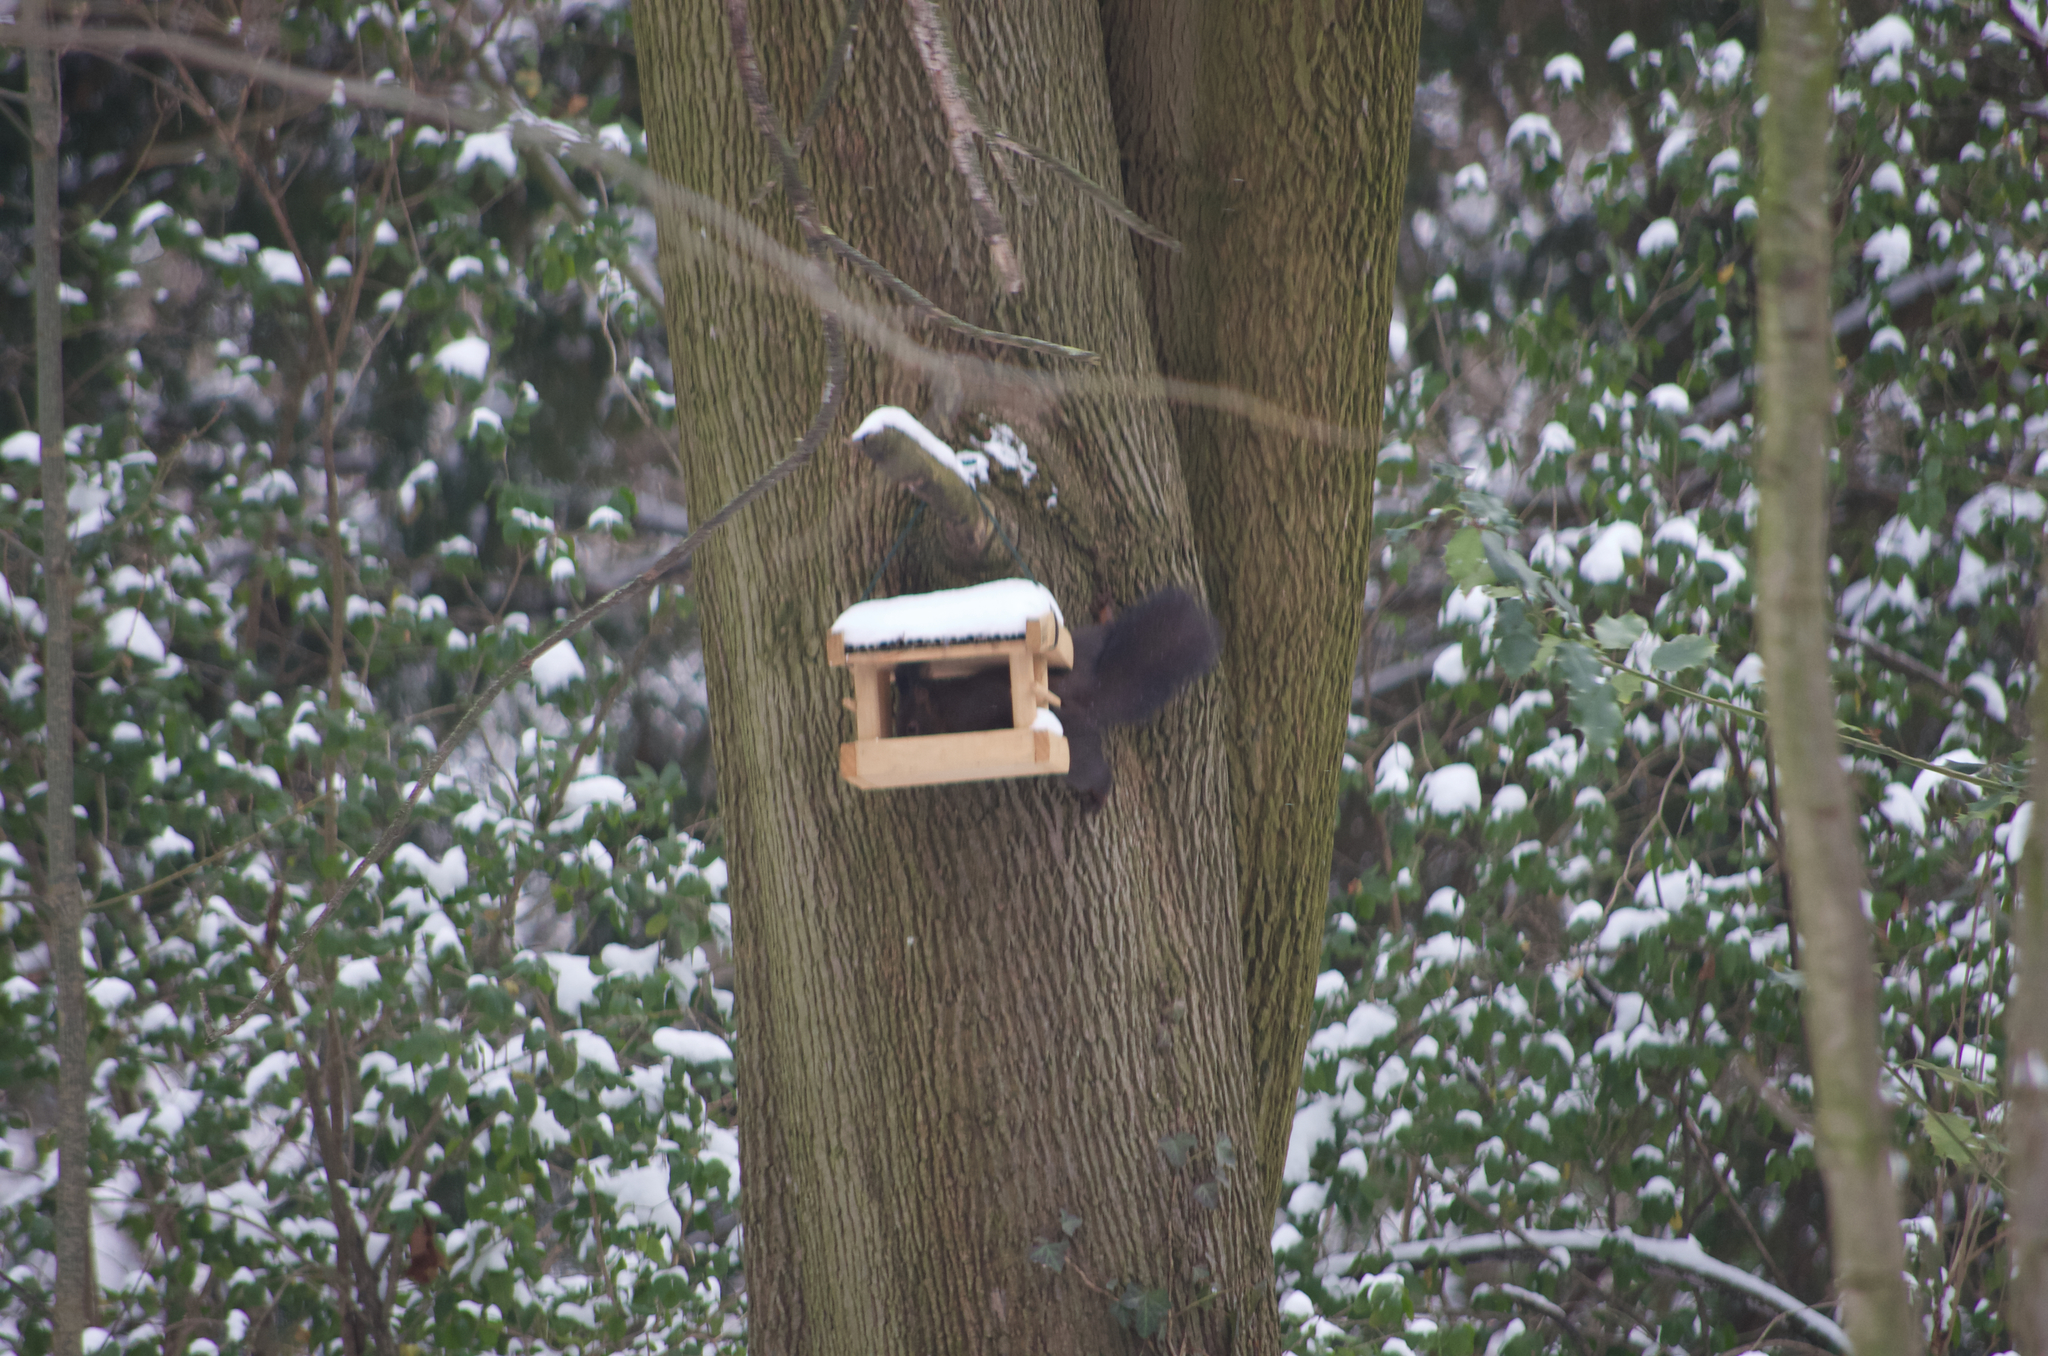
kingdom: Animalia
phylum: Chordata
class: Mammalia
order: Rodentia
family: Sciuridae
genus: Sciurus
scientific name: Sciurus vulgaris
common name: Eurasian red squirrel
